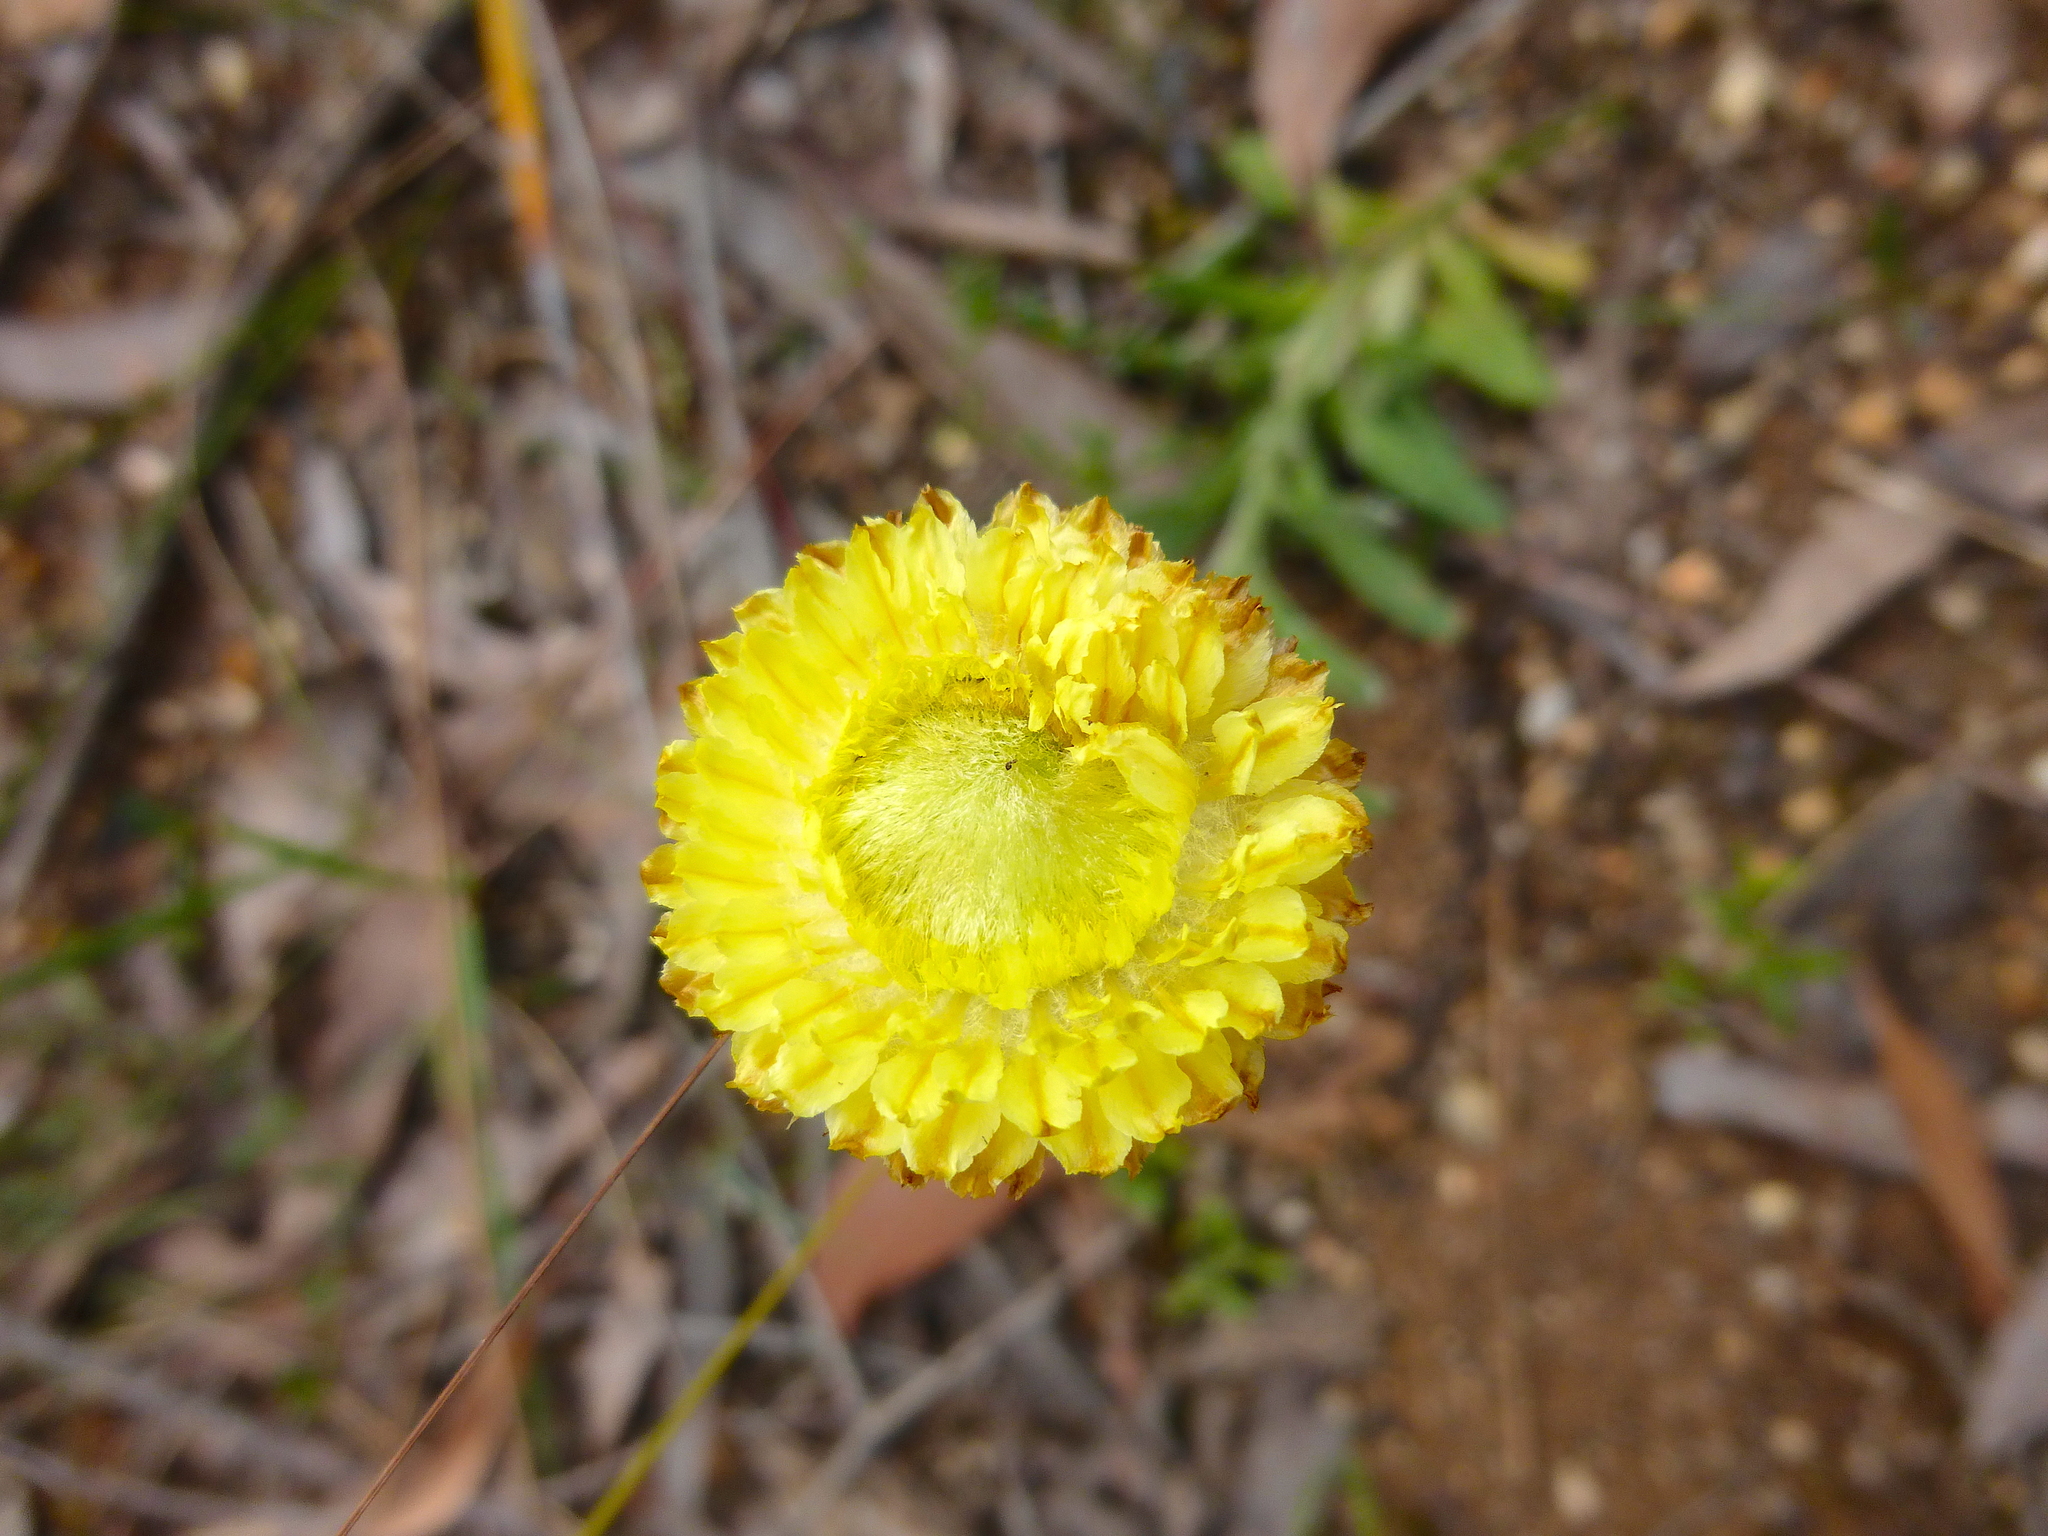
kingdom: Plantae
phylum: Tracheophyta
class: Magnoliopsida
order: Asterales
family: Asteraceae
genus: Coronidium
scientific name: Coronidium scorpioides
